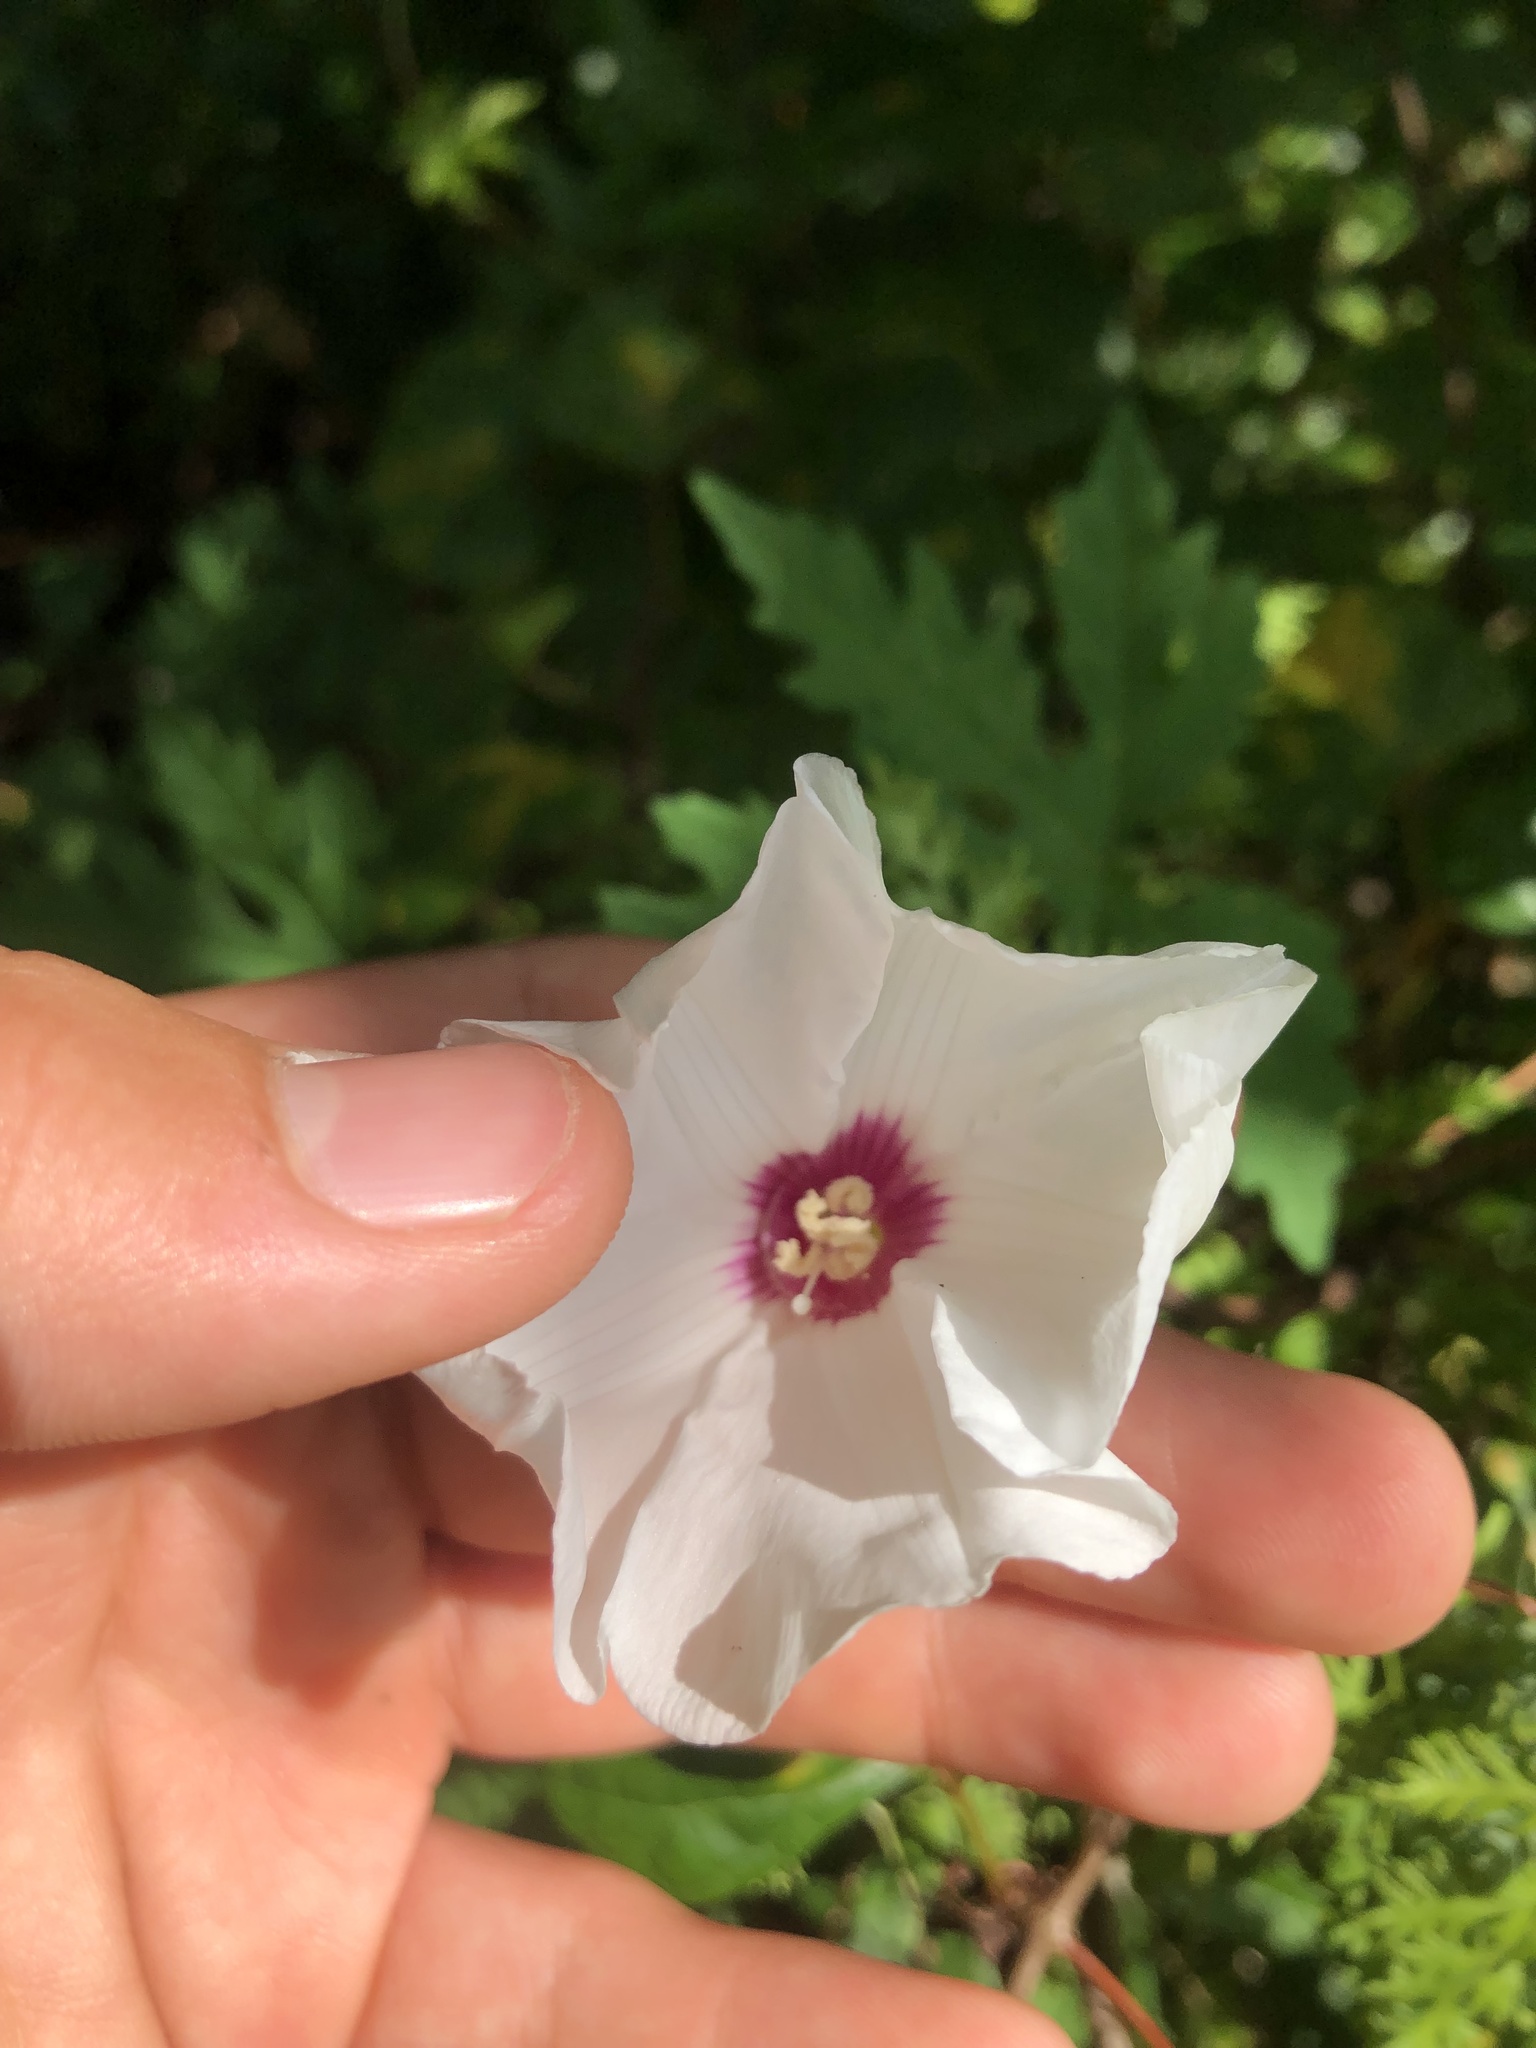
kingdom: Plantae
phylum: Tracheophyta
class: Magnoliopsida
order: Solanales
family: Convolvulaceae
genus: Distimake
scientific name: Distimake dissectus
